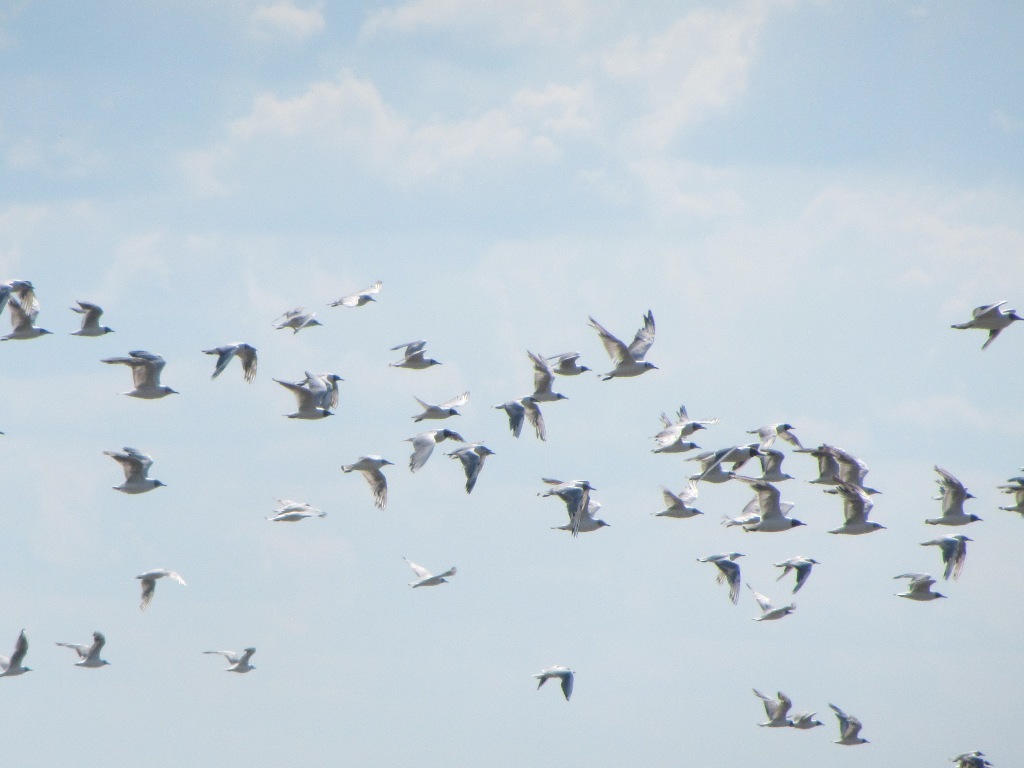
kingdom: Animalia
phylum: Chordata
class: Aves
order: Charadriiformes
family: Laridae
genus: Chroicocephalus
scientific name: Chroicocephalus ridibundus
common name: Black-headed gull
